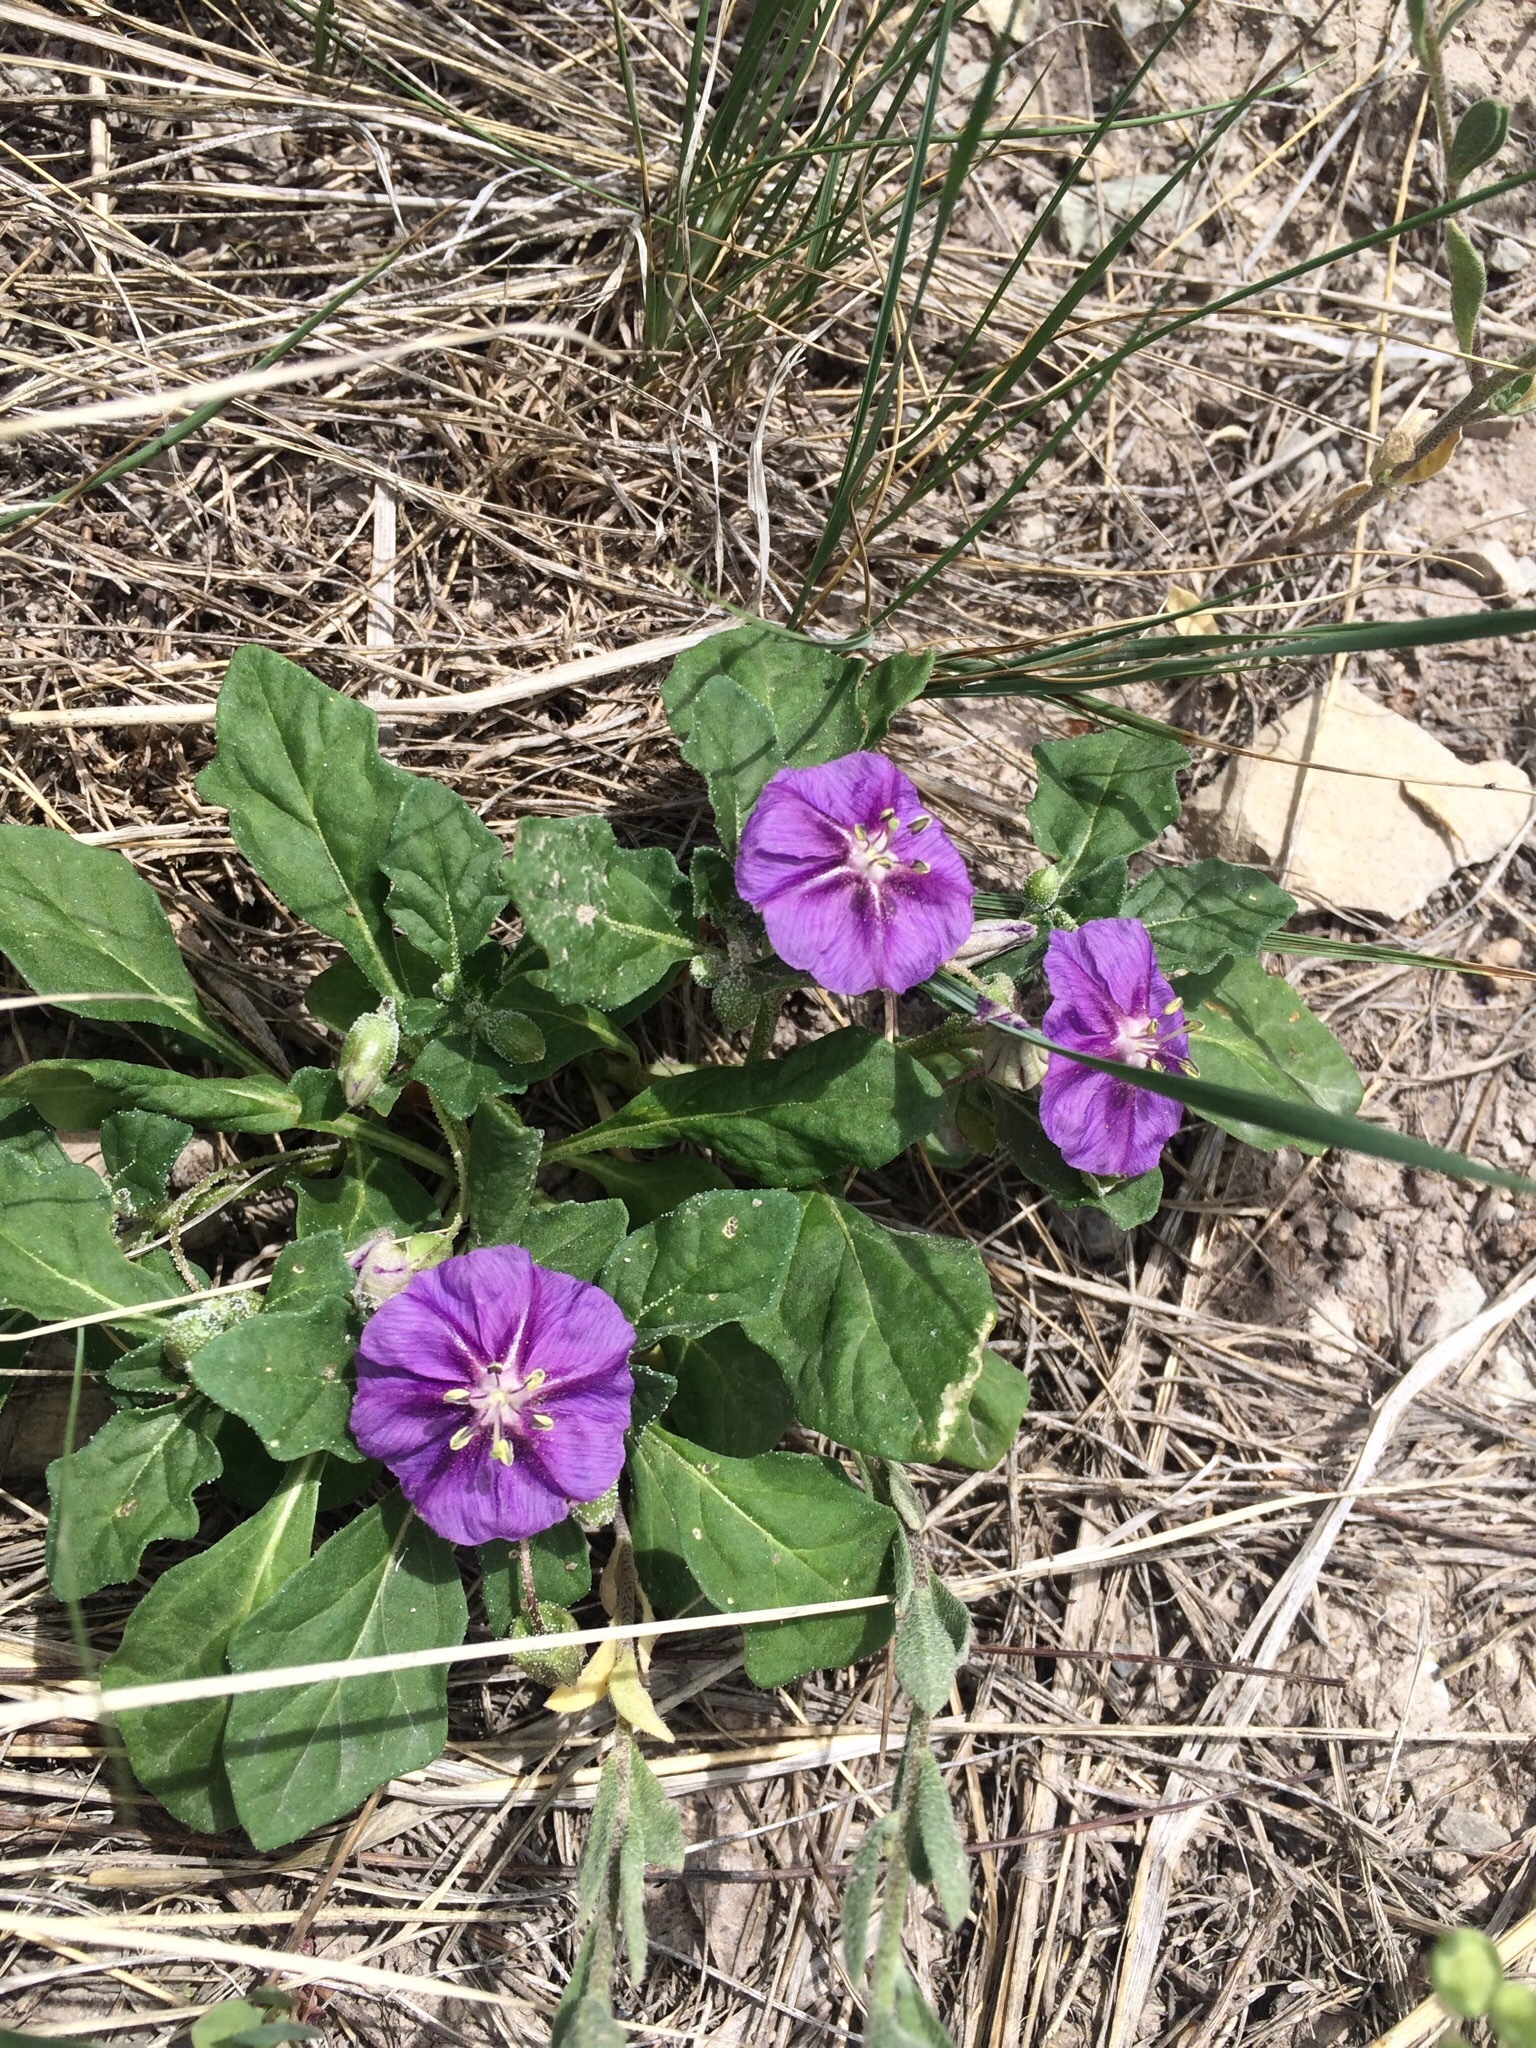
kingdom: Plantae
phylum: Tracheophyta
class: Magnoliopsida
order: Solanales
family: Solanaceae
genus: Quincula
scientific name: Quincula lobata
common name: Purple-ground-cherry
